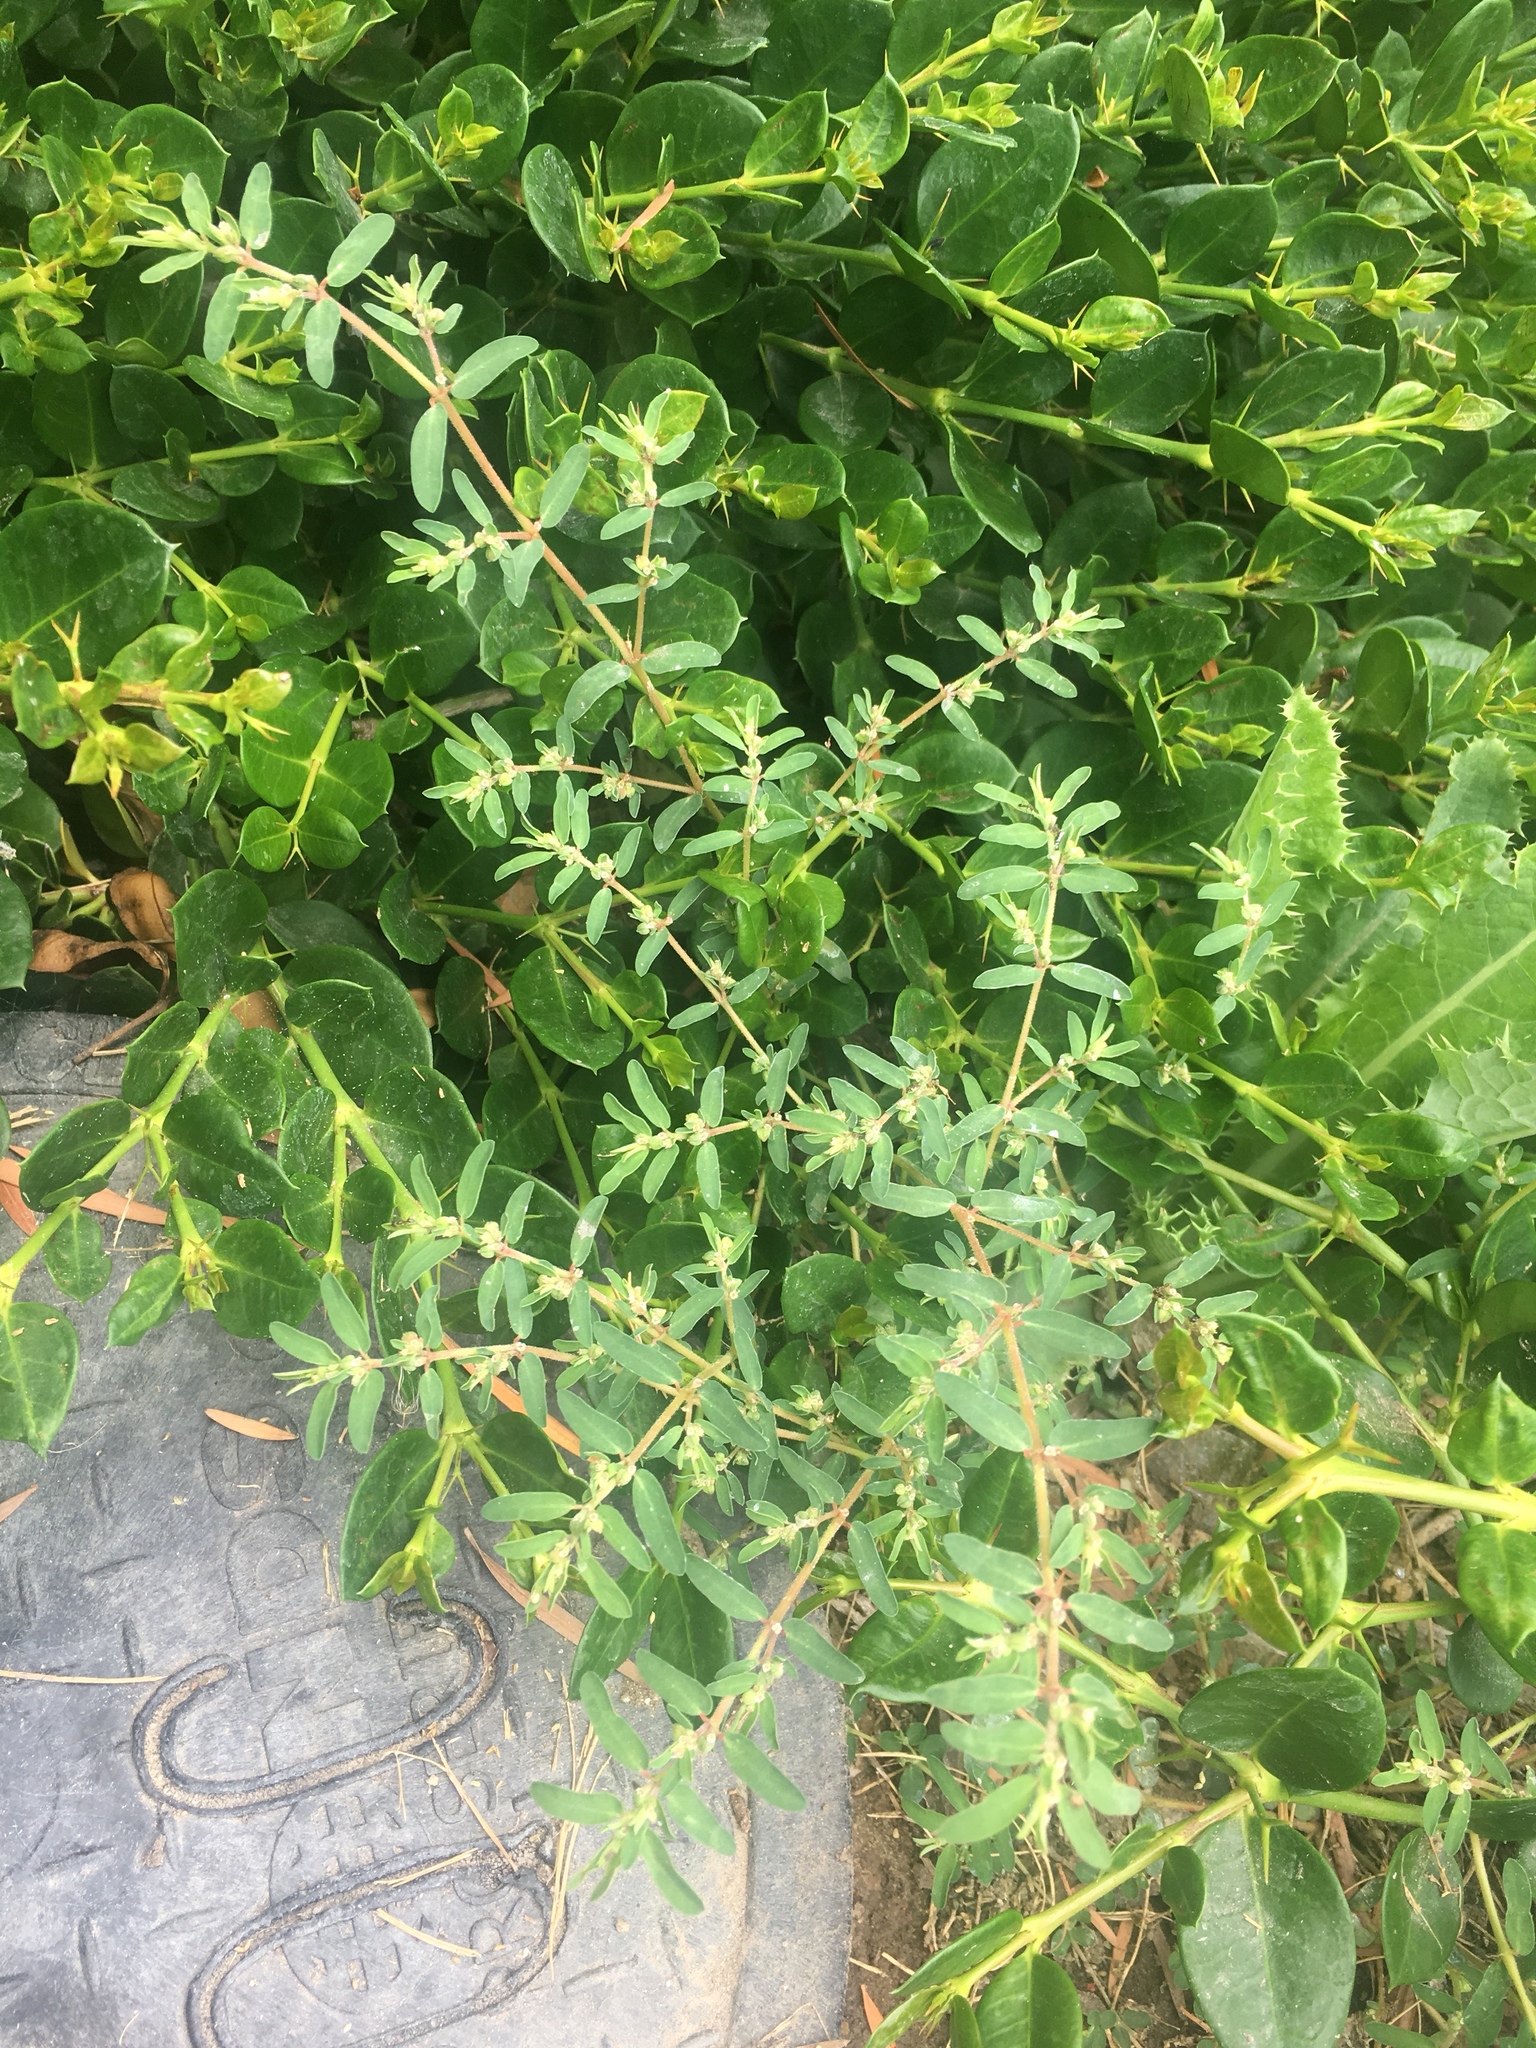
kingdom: Plantae
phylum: Tracheophyta
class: Magnoliopsida
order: Malpighiales
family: Euphorbiaceae
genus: Euphorbia
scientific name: Euphorbia maculata
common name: Spotted spurge
